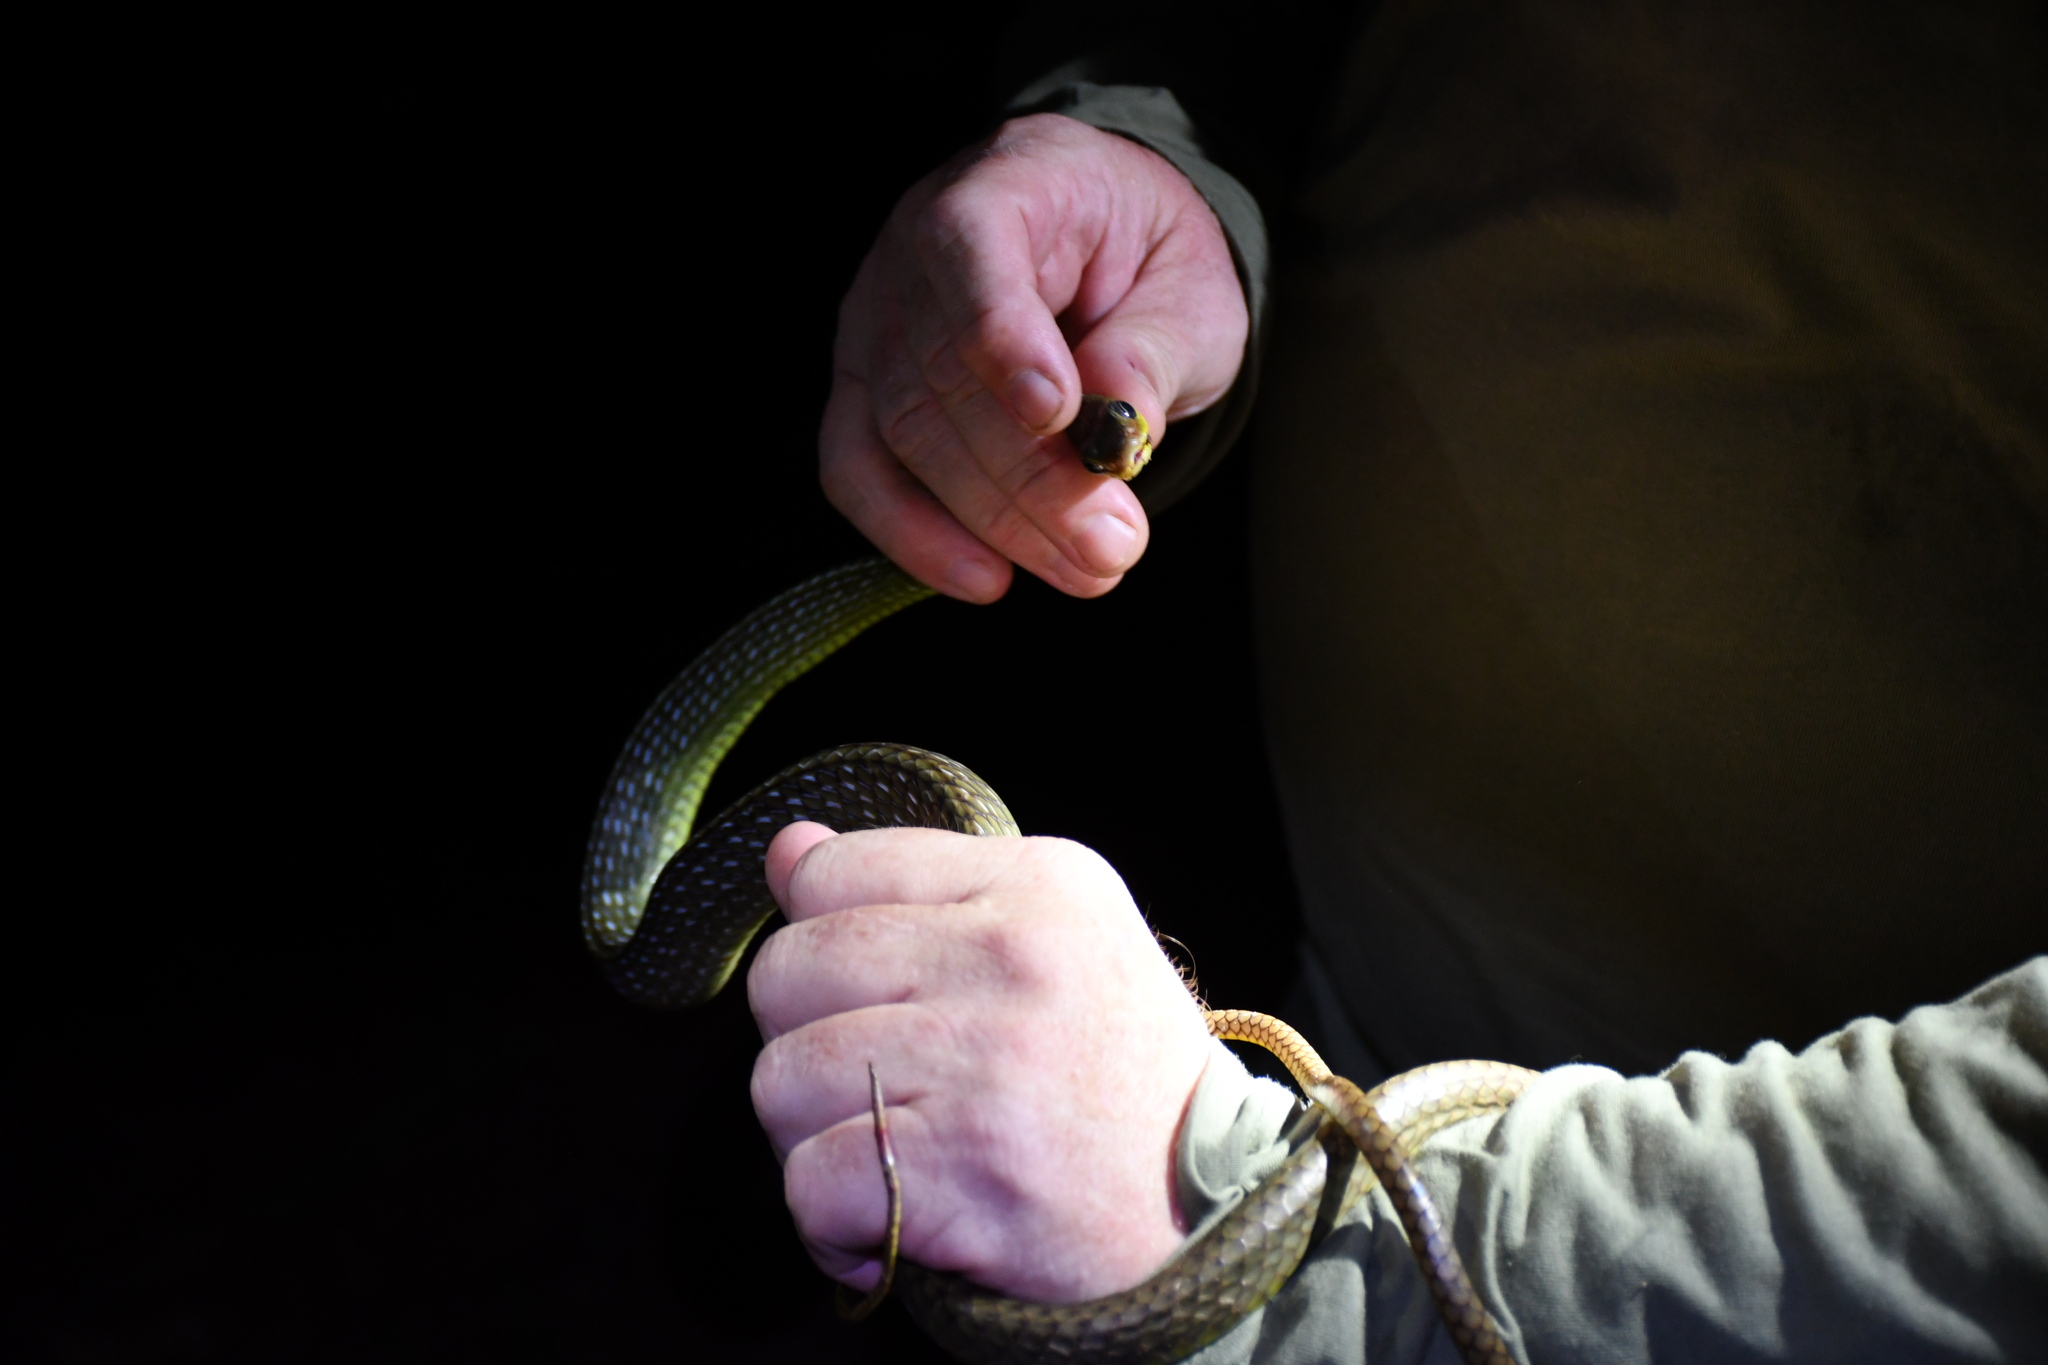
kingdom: Animalia
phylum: Chordata
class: Squamata
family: Colubridae
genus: Chironius
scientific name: Chironius exoletus
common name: Linnaeus' sipo
